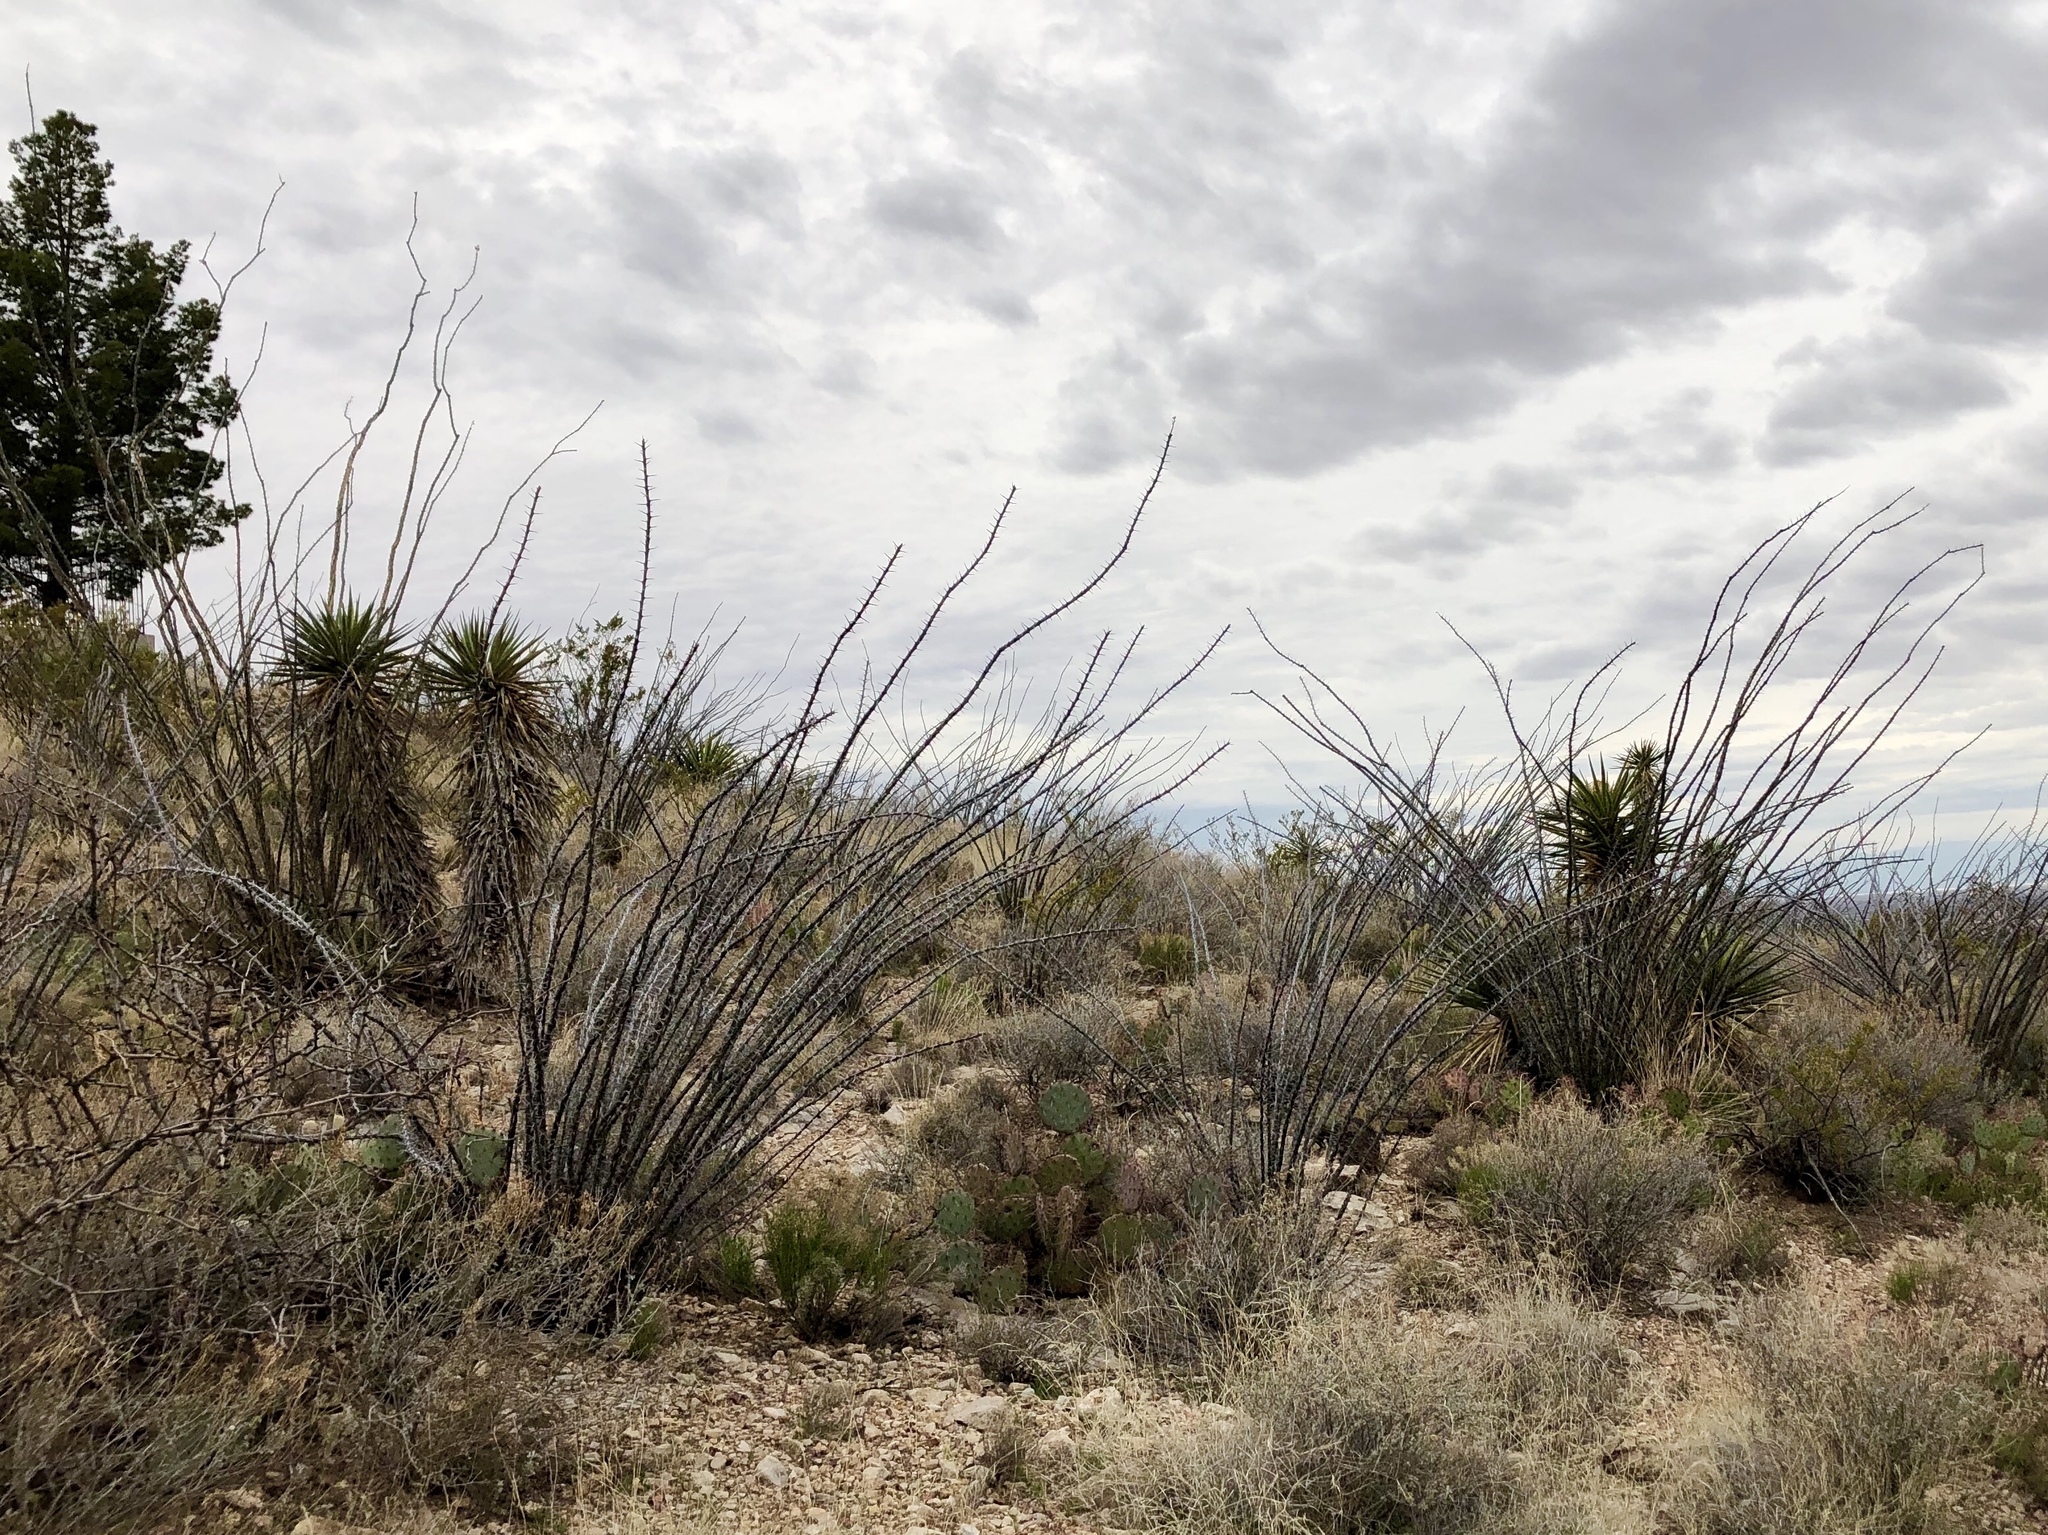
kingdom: Plantae
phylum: Tracheophyta
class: Magnoliopsida
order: Ericales
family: Fouquieriaceae
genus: Fouquieria
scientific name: Fouquieria splendens
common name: Vine-cactus
